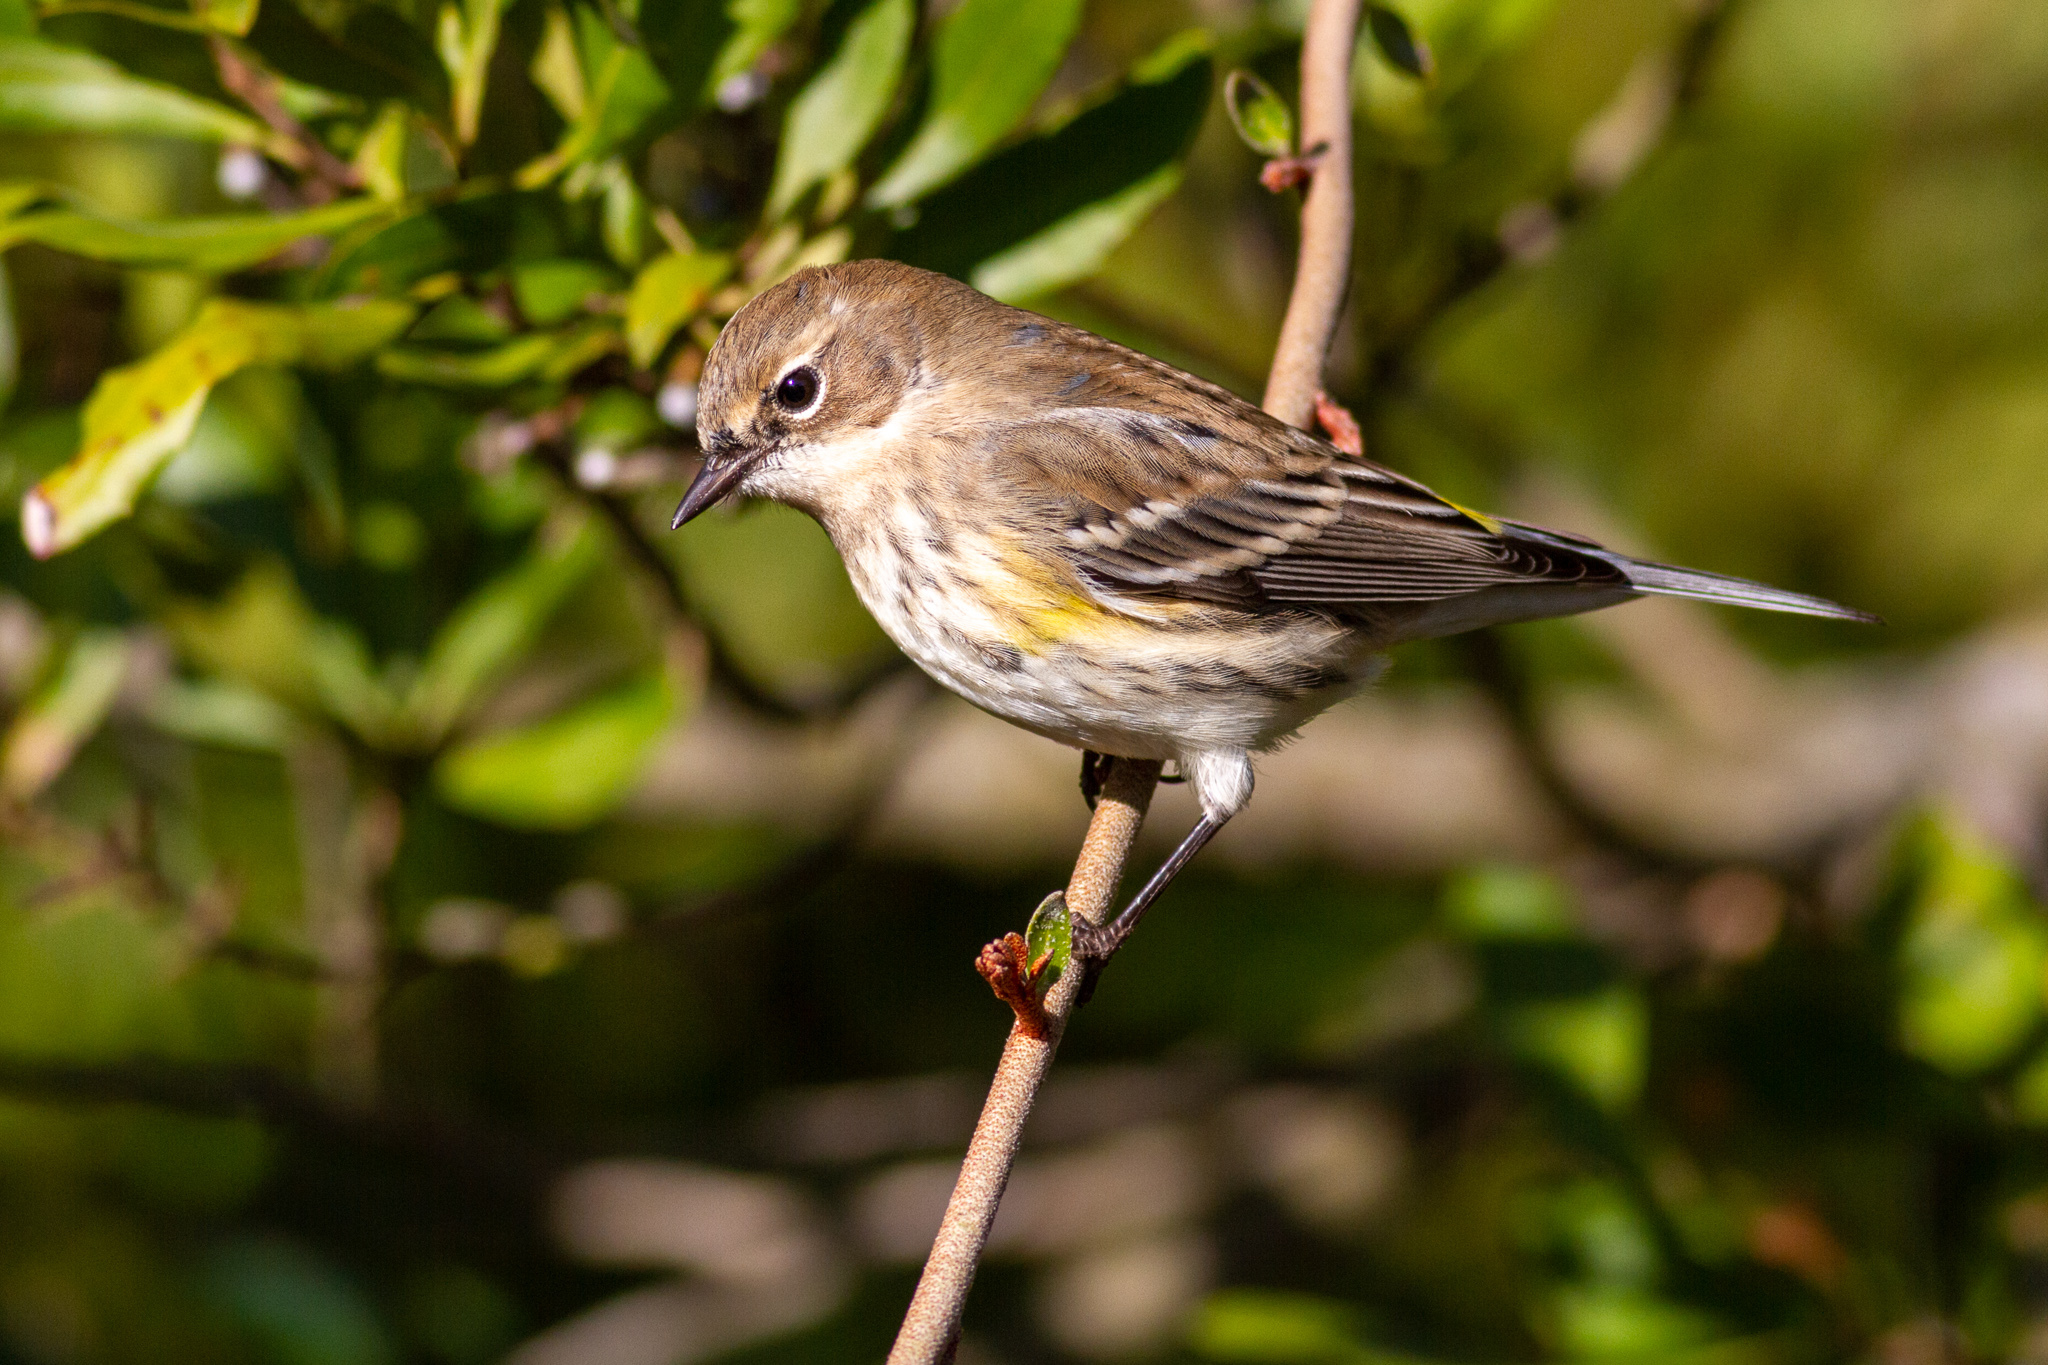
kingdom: Animalia
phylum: Chordata
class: Aves
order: Passeriformes
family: Parulidae
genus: Setophaga
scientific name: Setophaga coronata
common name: Myrtle warbler
